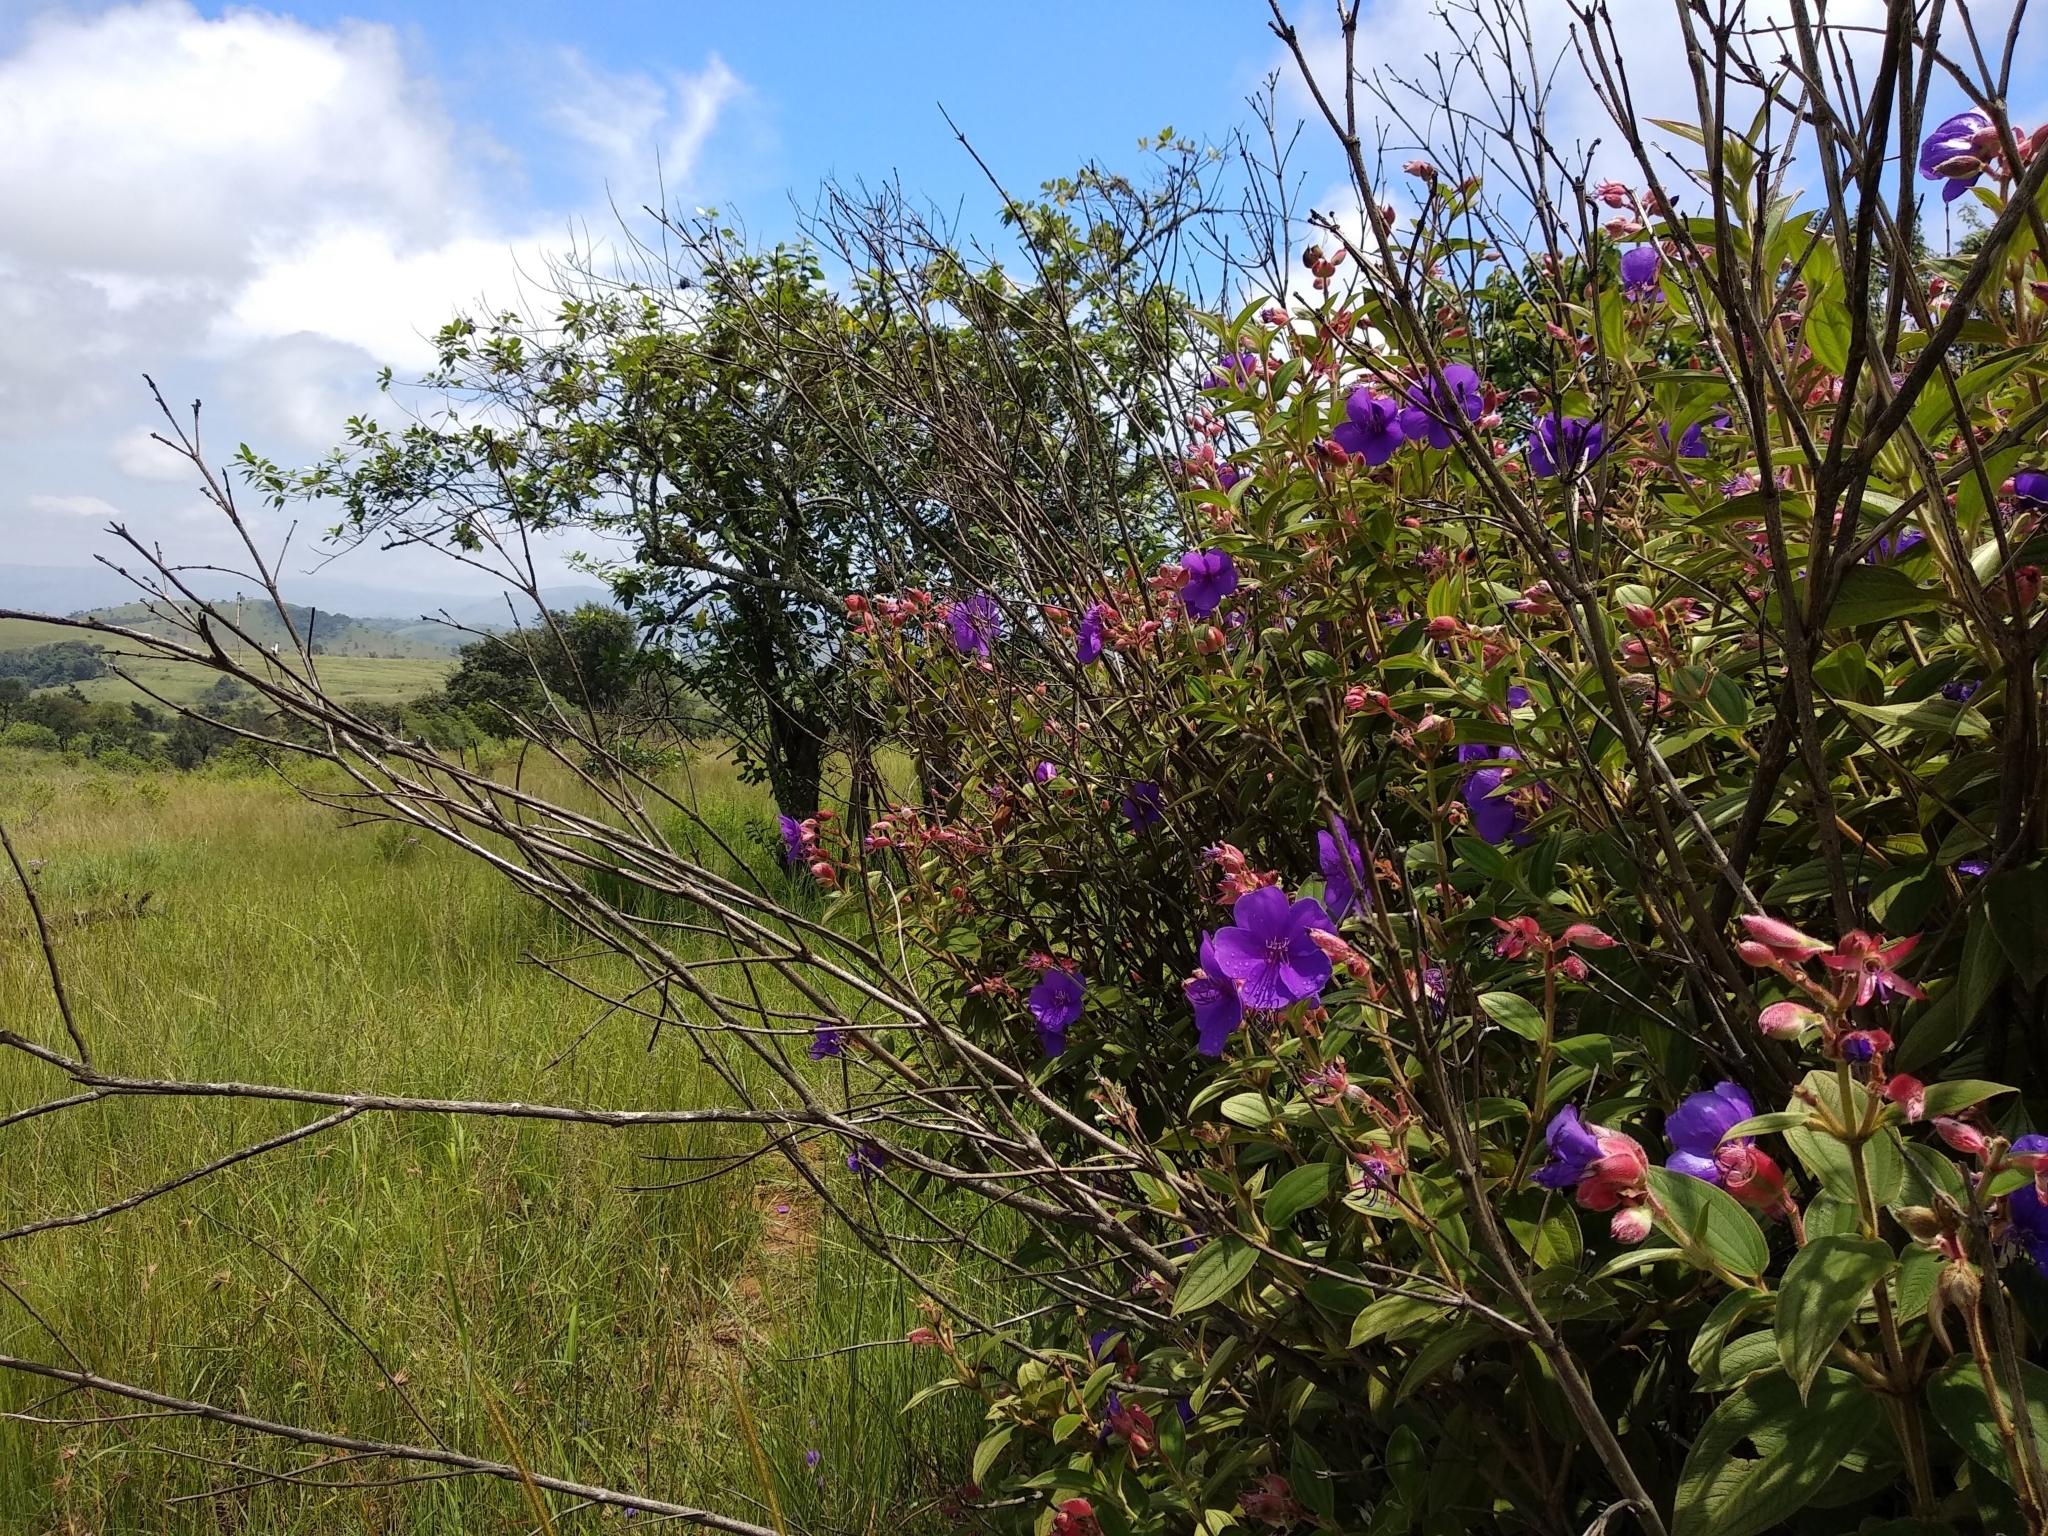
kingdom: Plantae
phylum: Tracheophyta
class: Magnoliopsida
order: Myrtales
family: Melastomataceae
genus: Pleroma
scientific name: Pleroma urvilleanum
